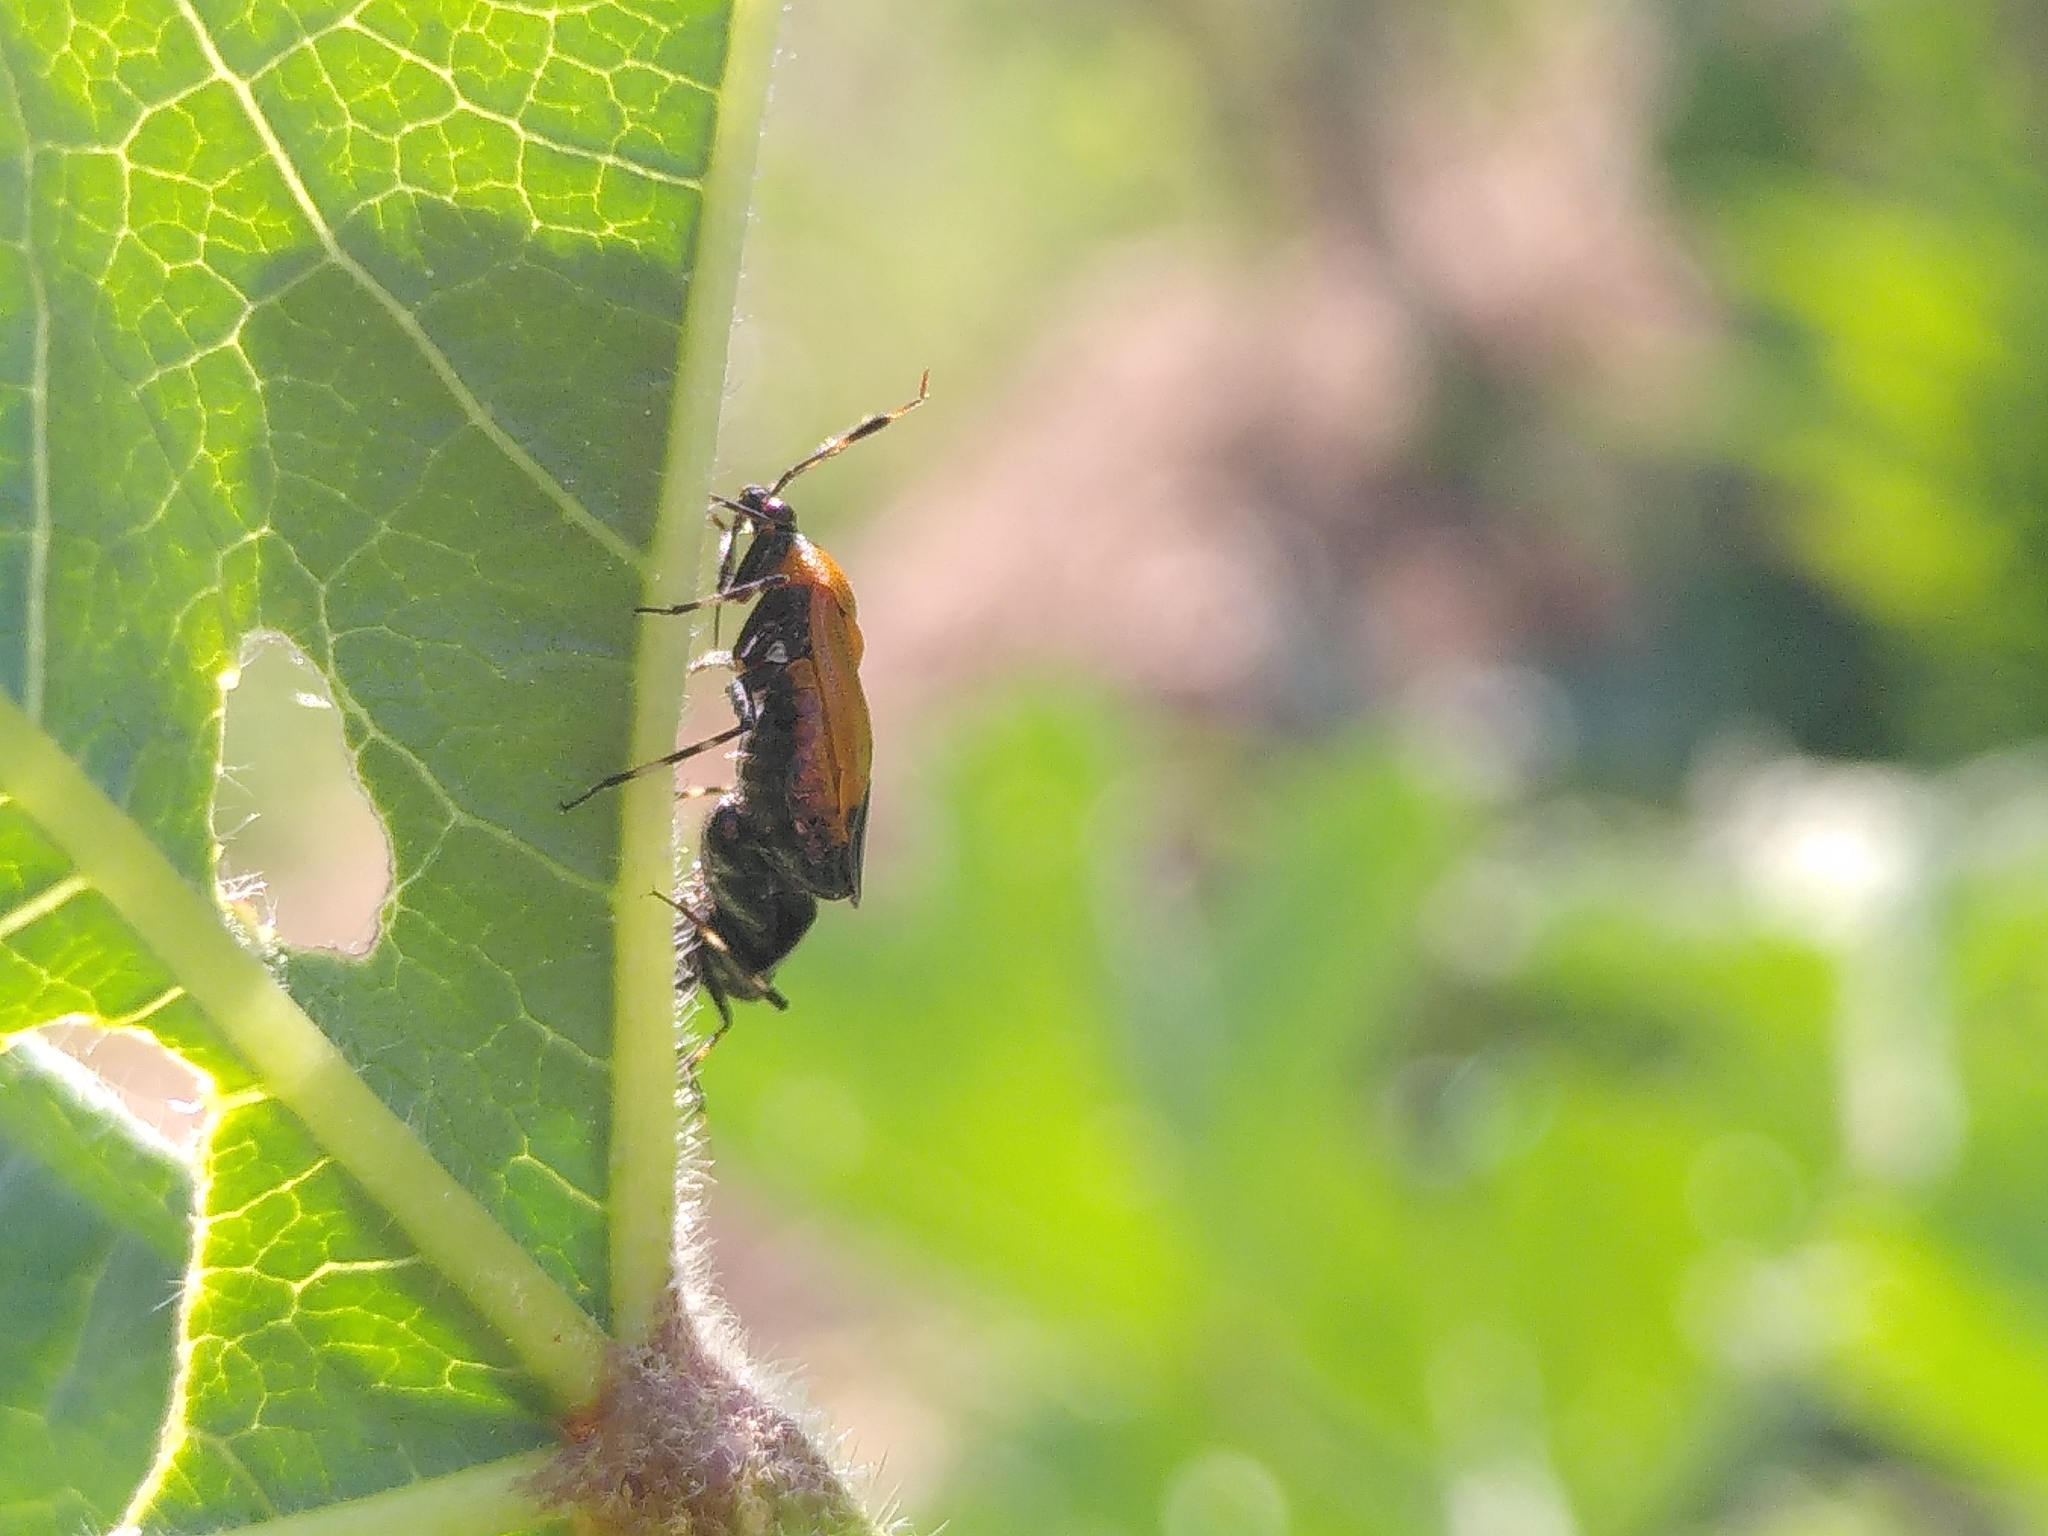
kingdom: Animalia
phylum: Arthropoda
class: Insecta
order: Hemiptera
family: Miridae
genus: Deraeocoris
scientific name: Deraeocoris punctum
